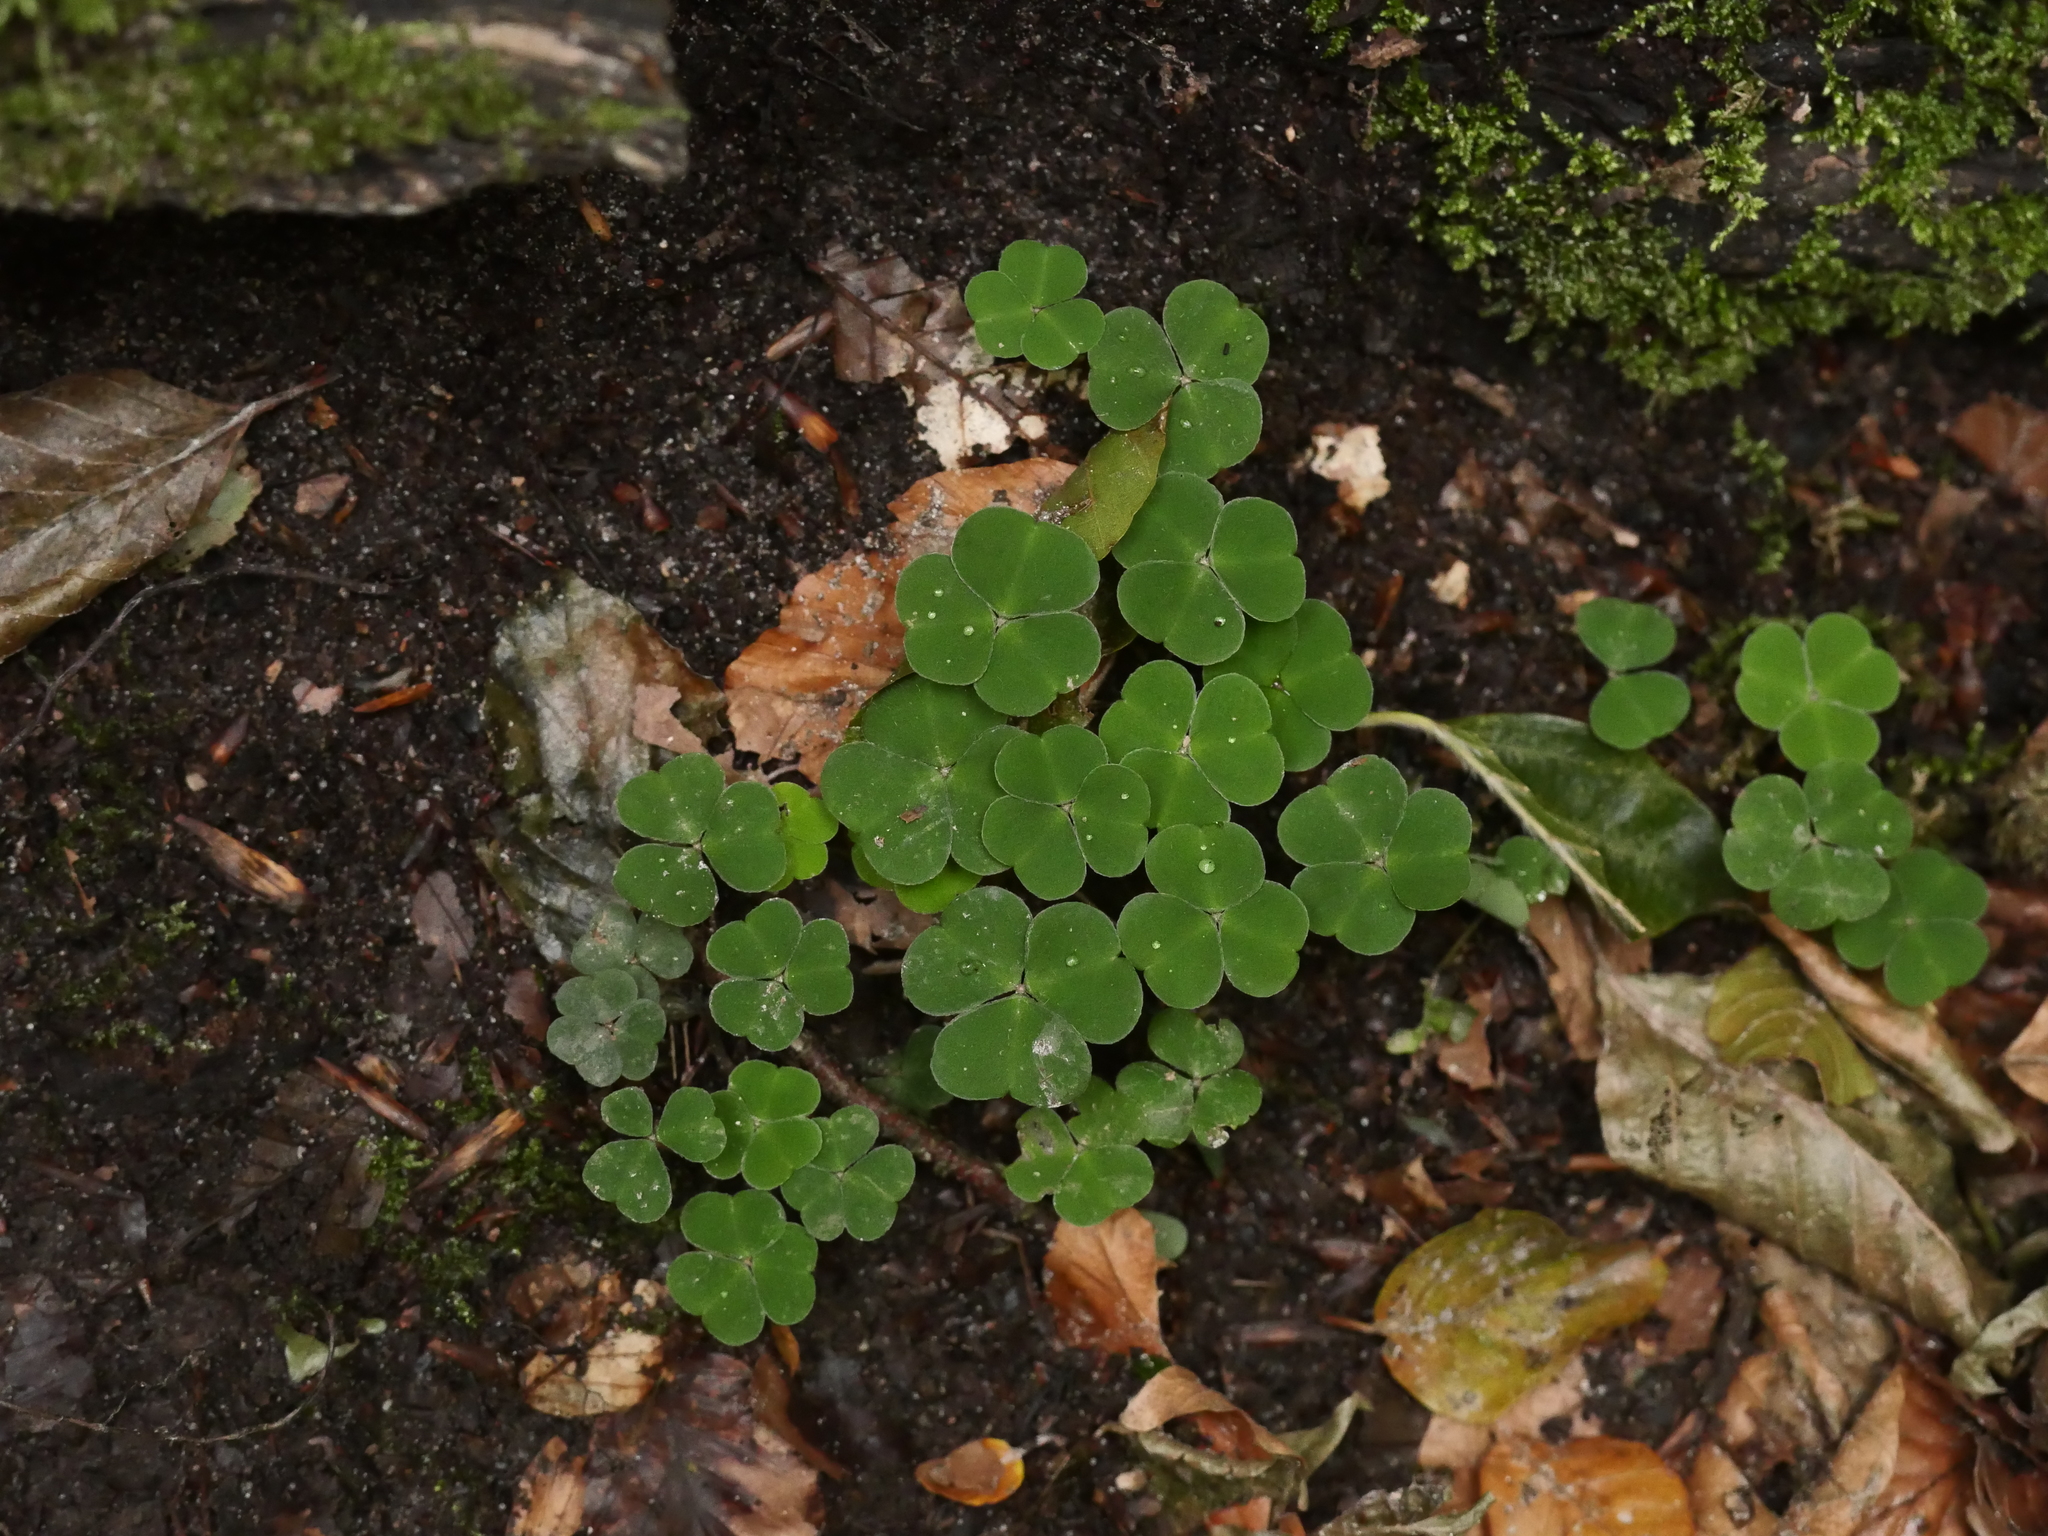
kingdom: Plantae
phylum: Tracheophyta
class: Magnoliopsida
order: Oxalidales
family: Oxalidaceae
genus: Oxalis
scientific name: Oxalis acetosella
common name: Wood-sorrel
